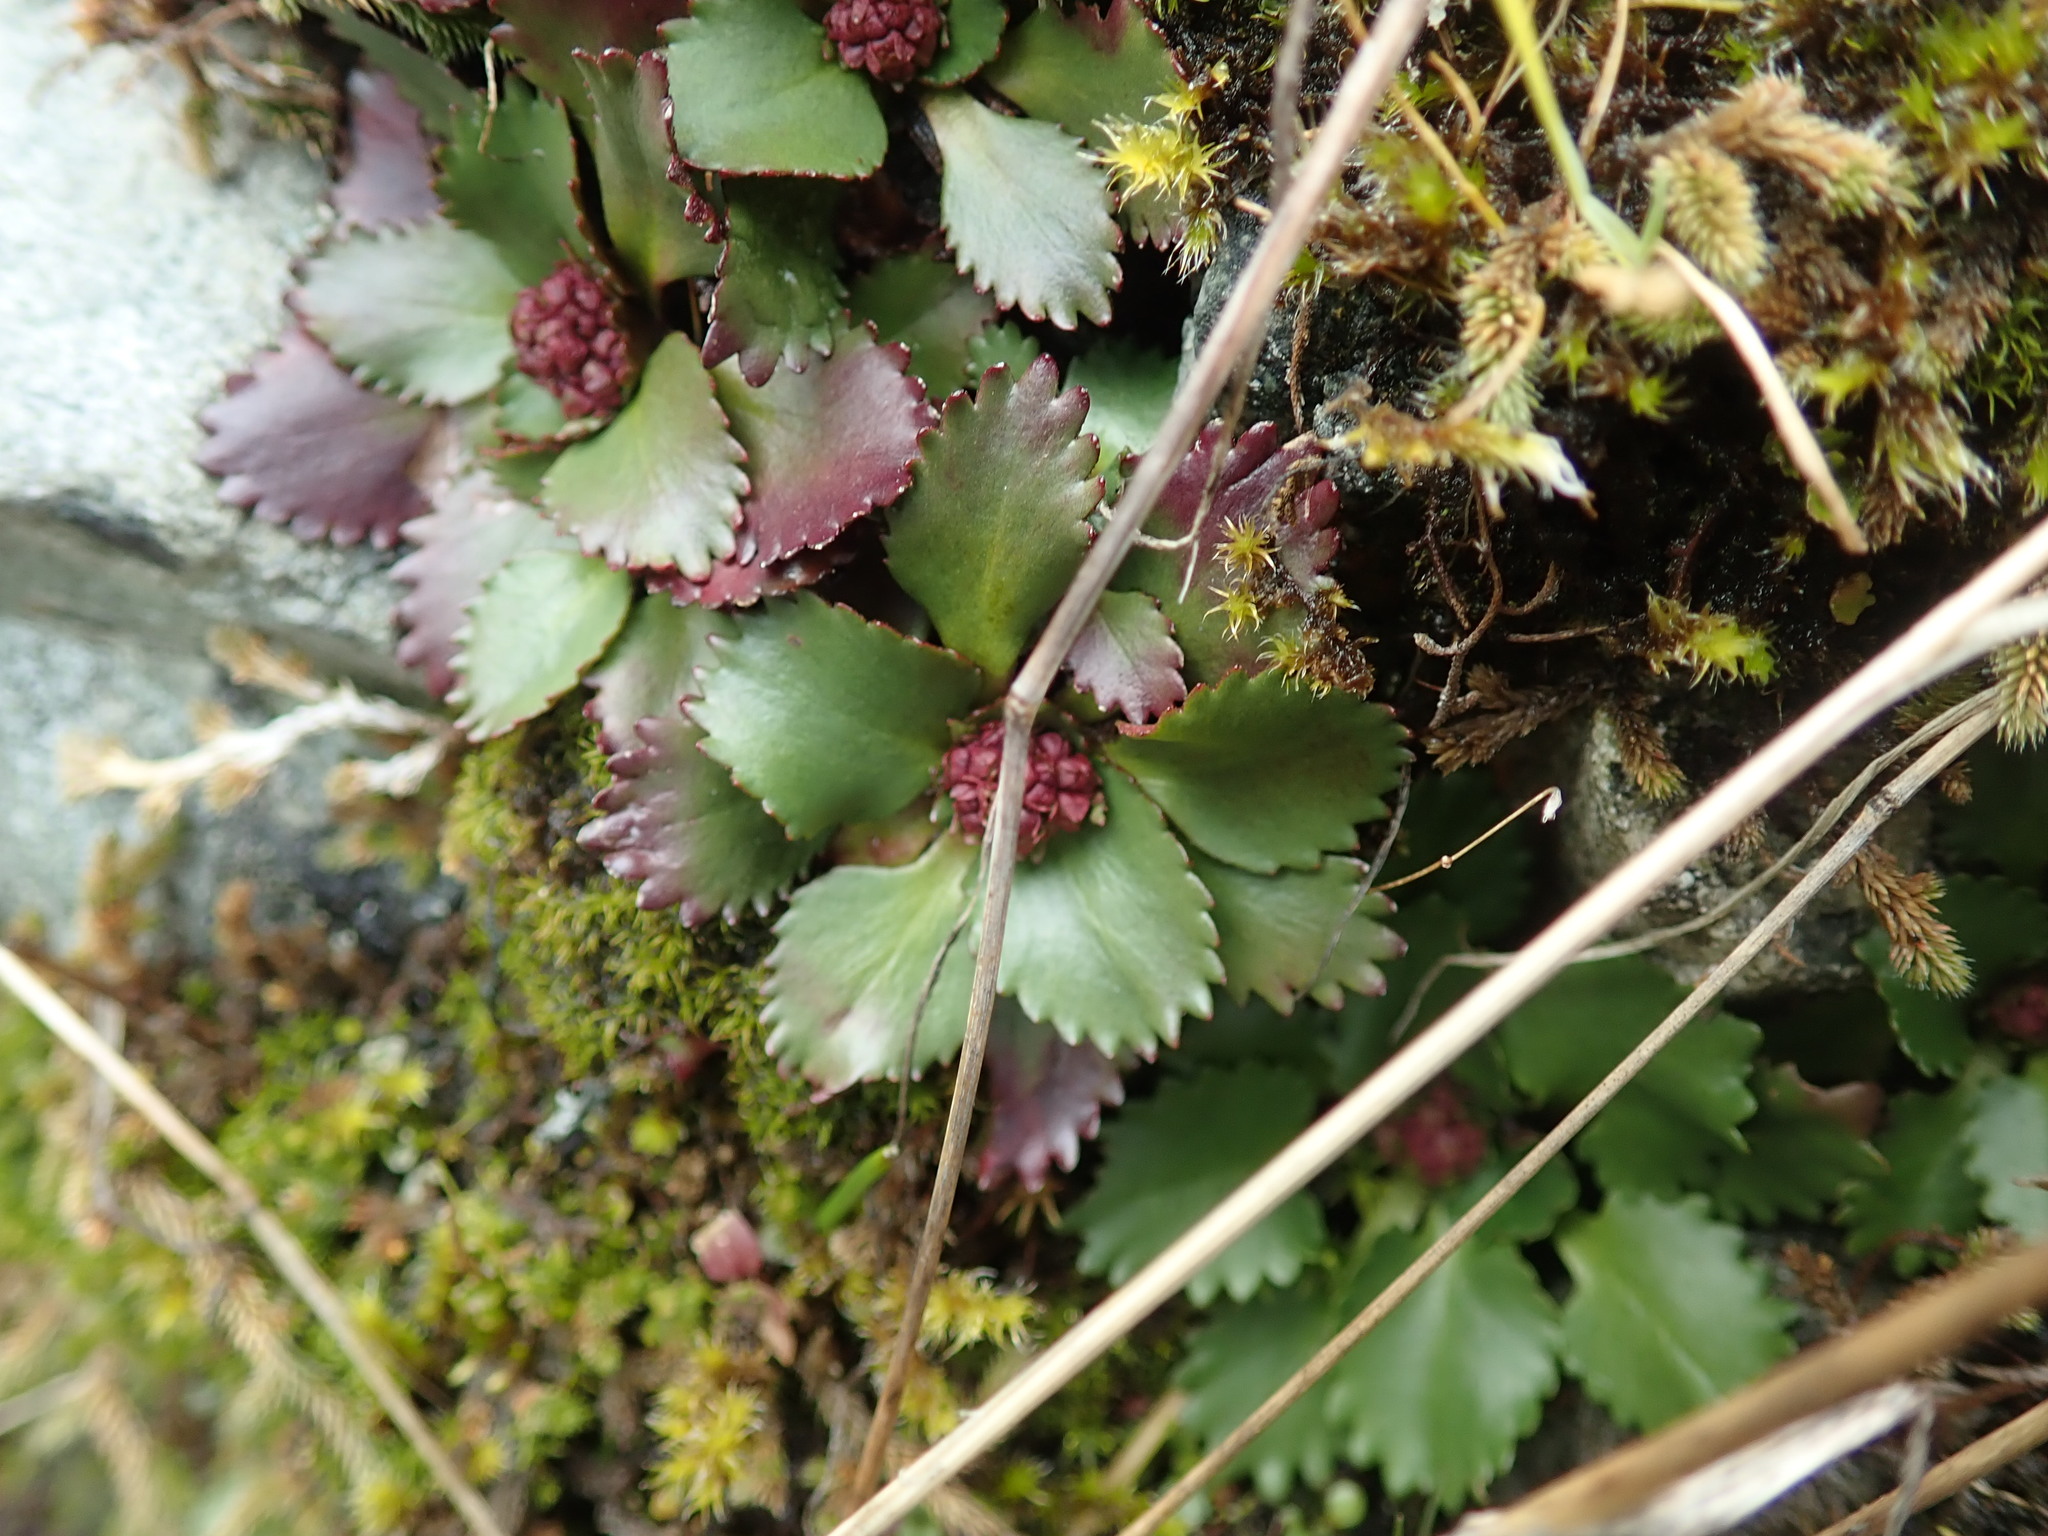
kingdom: Plantae
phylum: Tracheophyta
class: Magnoliopsida
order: Saxifragales
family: Saxifragaceae
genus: Micranthes
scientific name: Micranthes rufidula
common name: Rustyhair saxifrage
